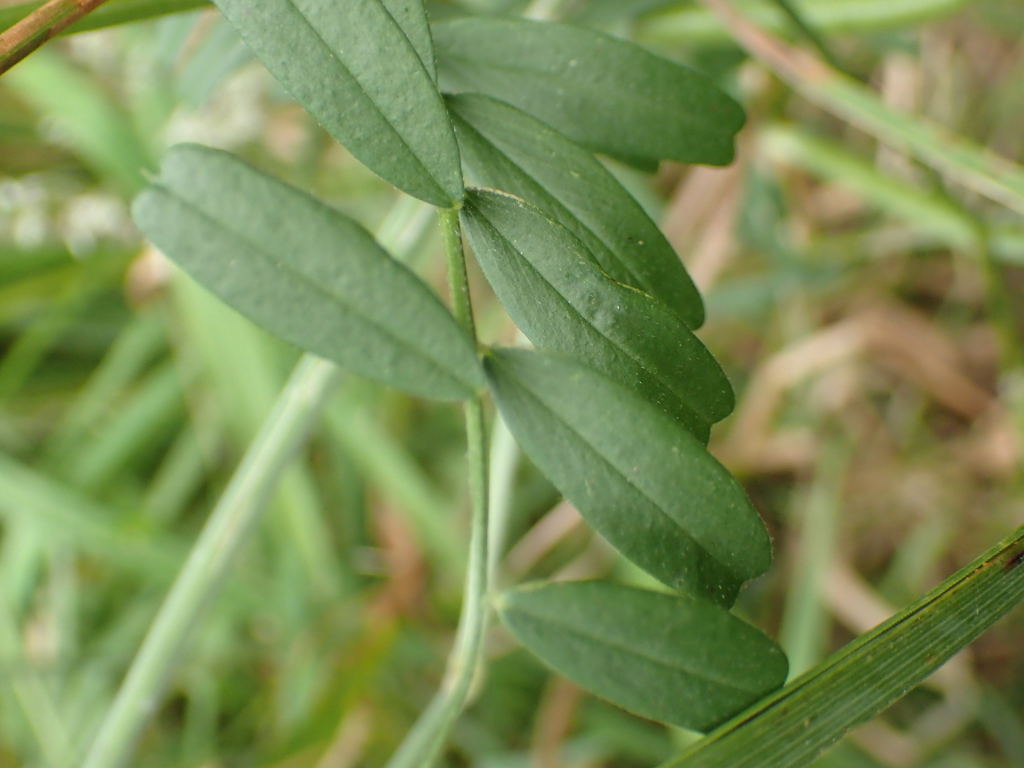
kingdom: Plantae
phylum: Tracheophyta
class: Magnoliopsida
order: Gentianales
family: Rubiaceae
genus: Galium
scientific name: Galium aparine
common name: Cleavers
